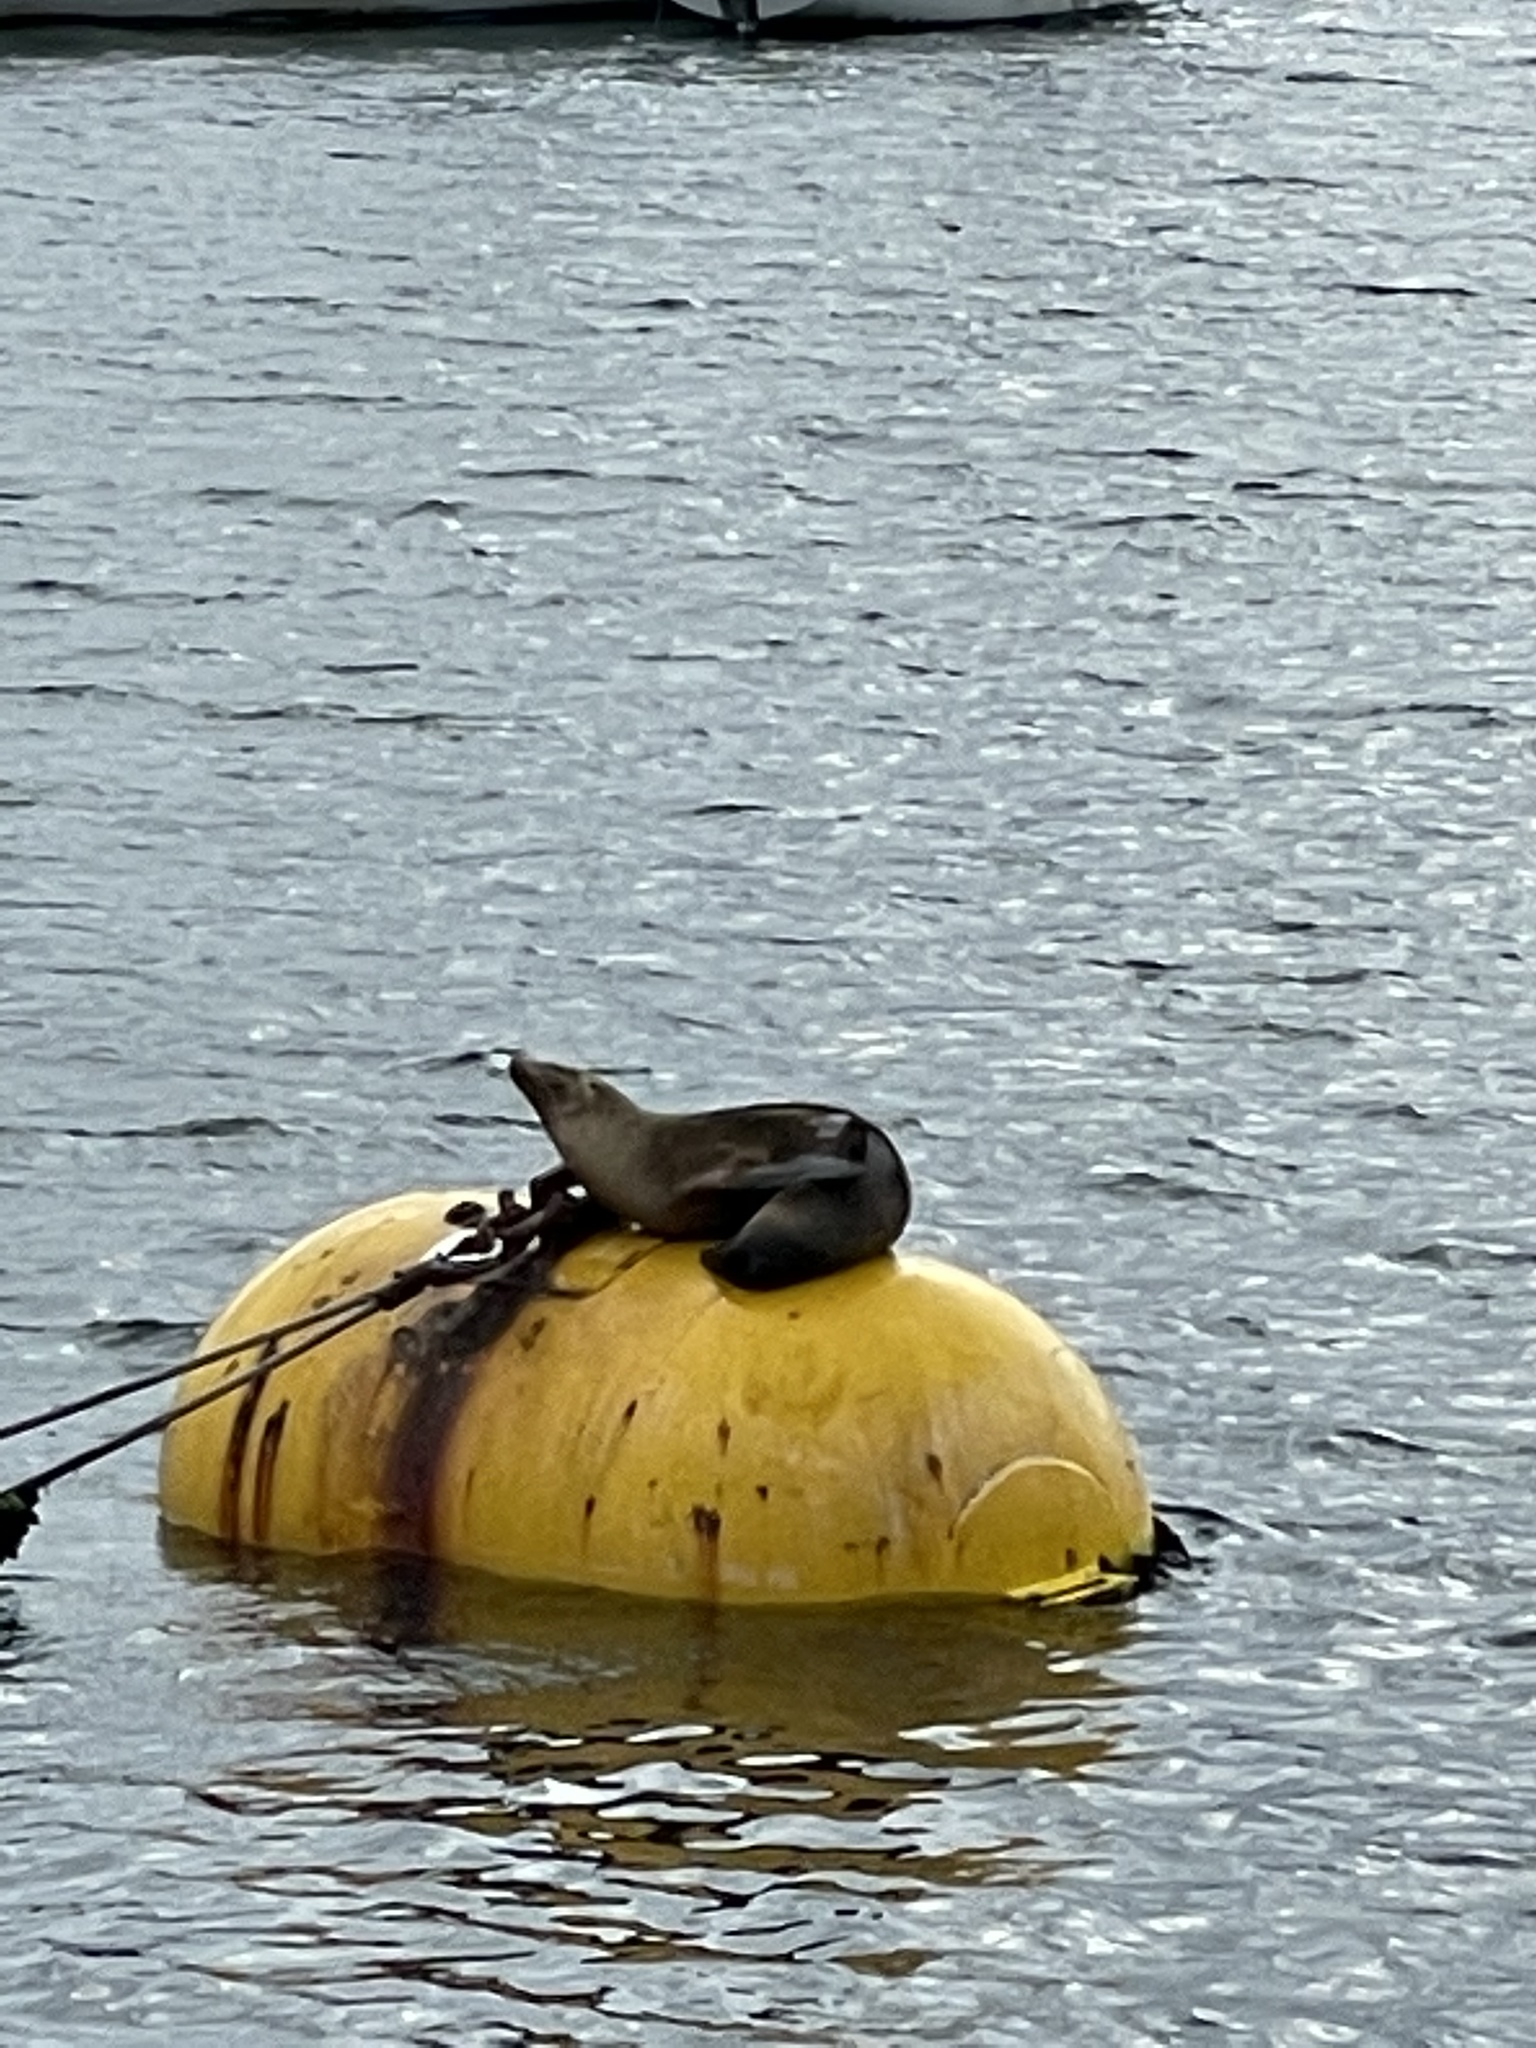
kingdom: Animalia
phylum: Chordata
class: Mammalia
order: Carnivora
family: Otariidae
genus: Zalophus
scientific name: Zalophus californianus
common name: California sea lion
